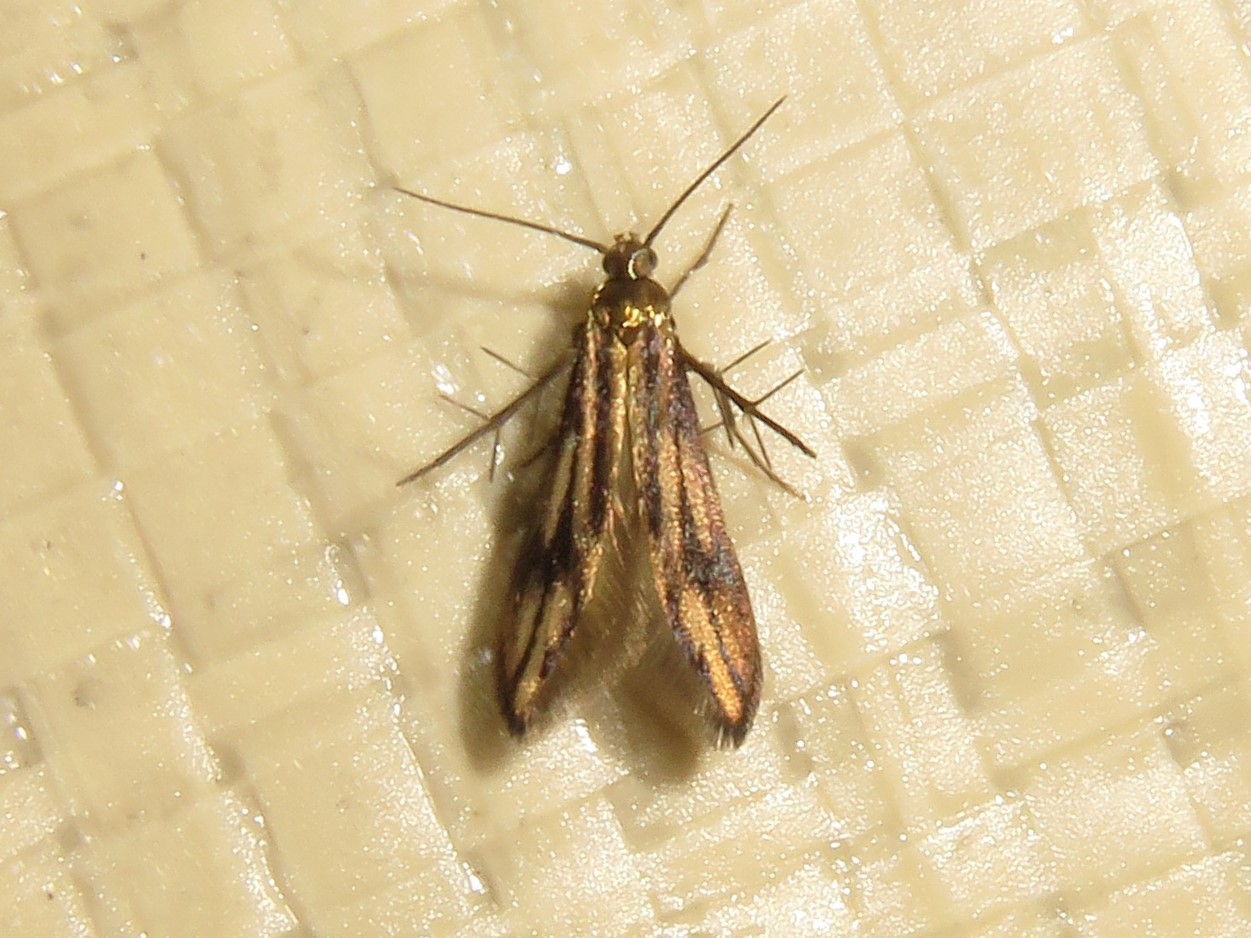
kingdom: Animalia
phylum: Arthropoda
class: Insecta
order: Lepidoptera
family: Schreckensteiniidae
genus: Schreckensteinia
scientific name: Schreckensteinia festaliella
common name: Blackberry skeletonizer
